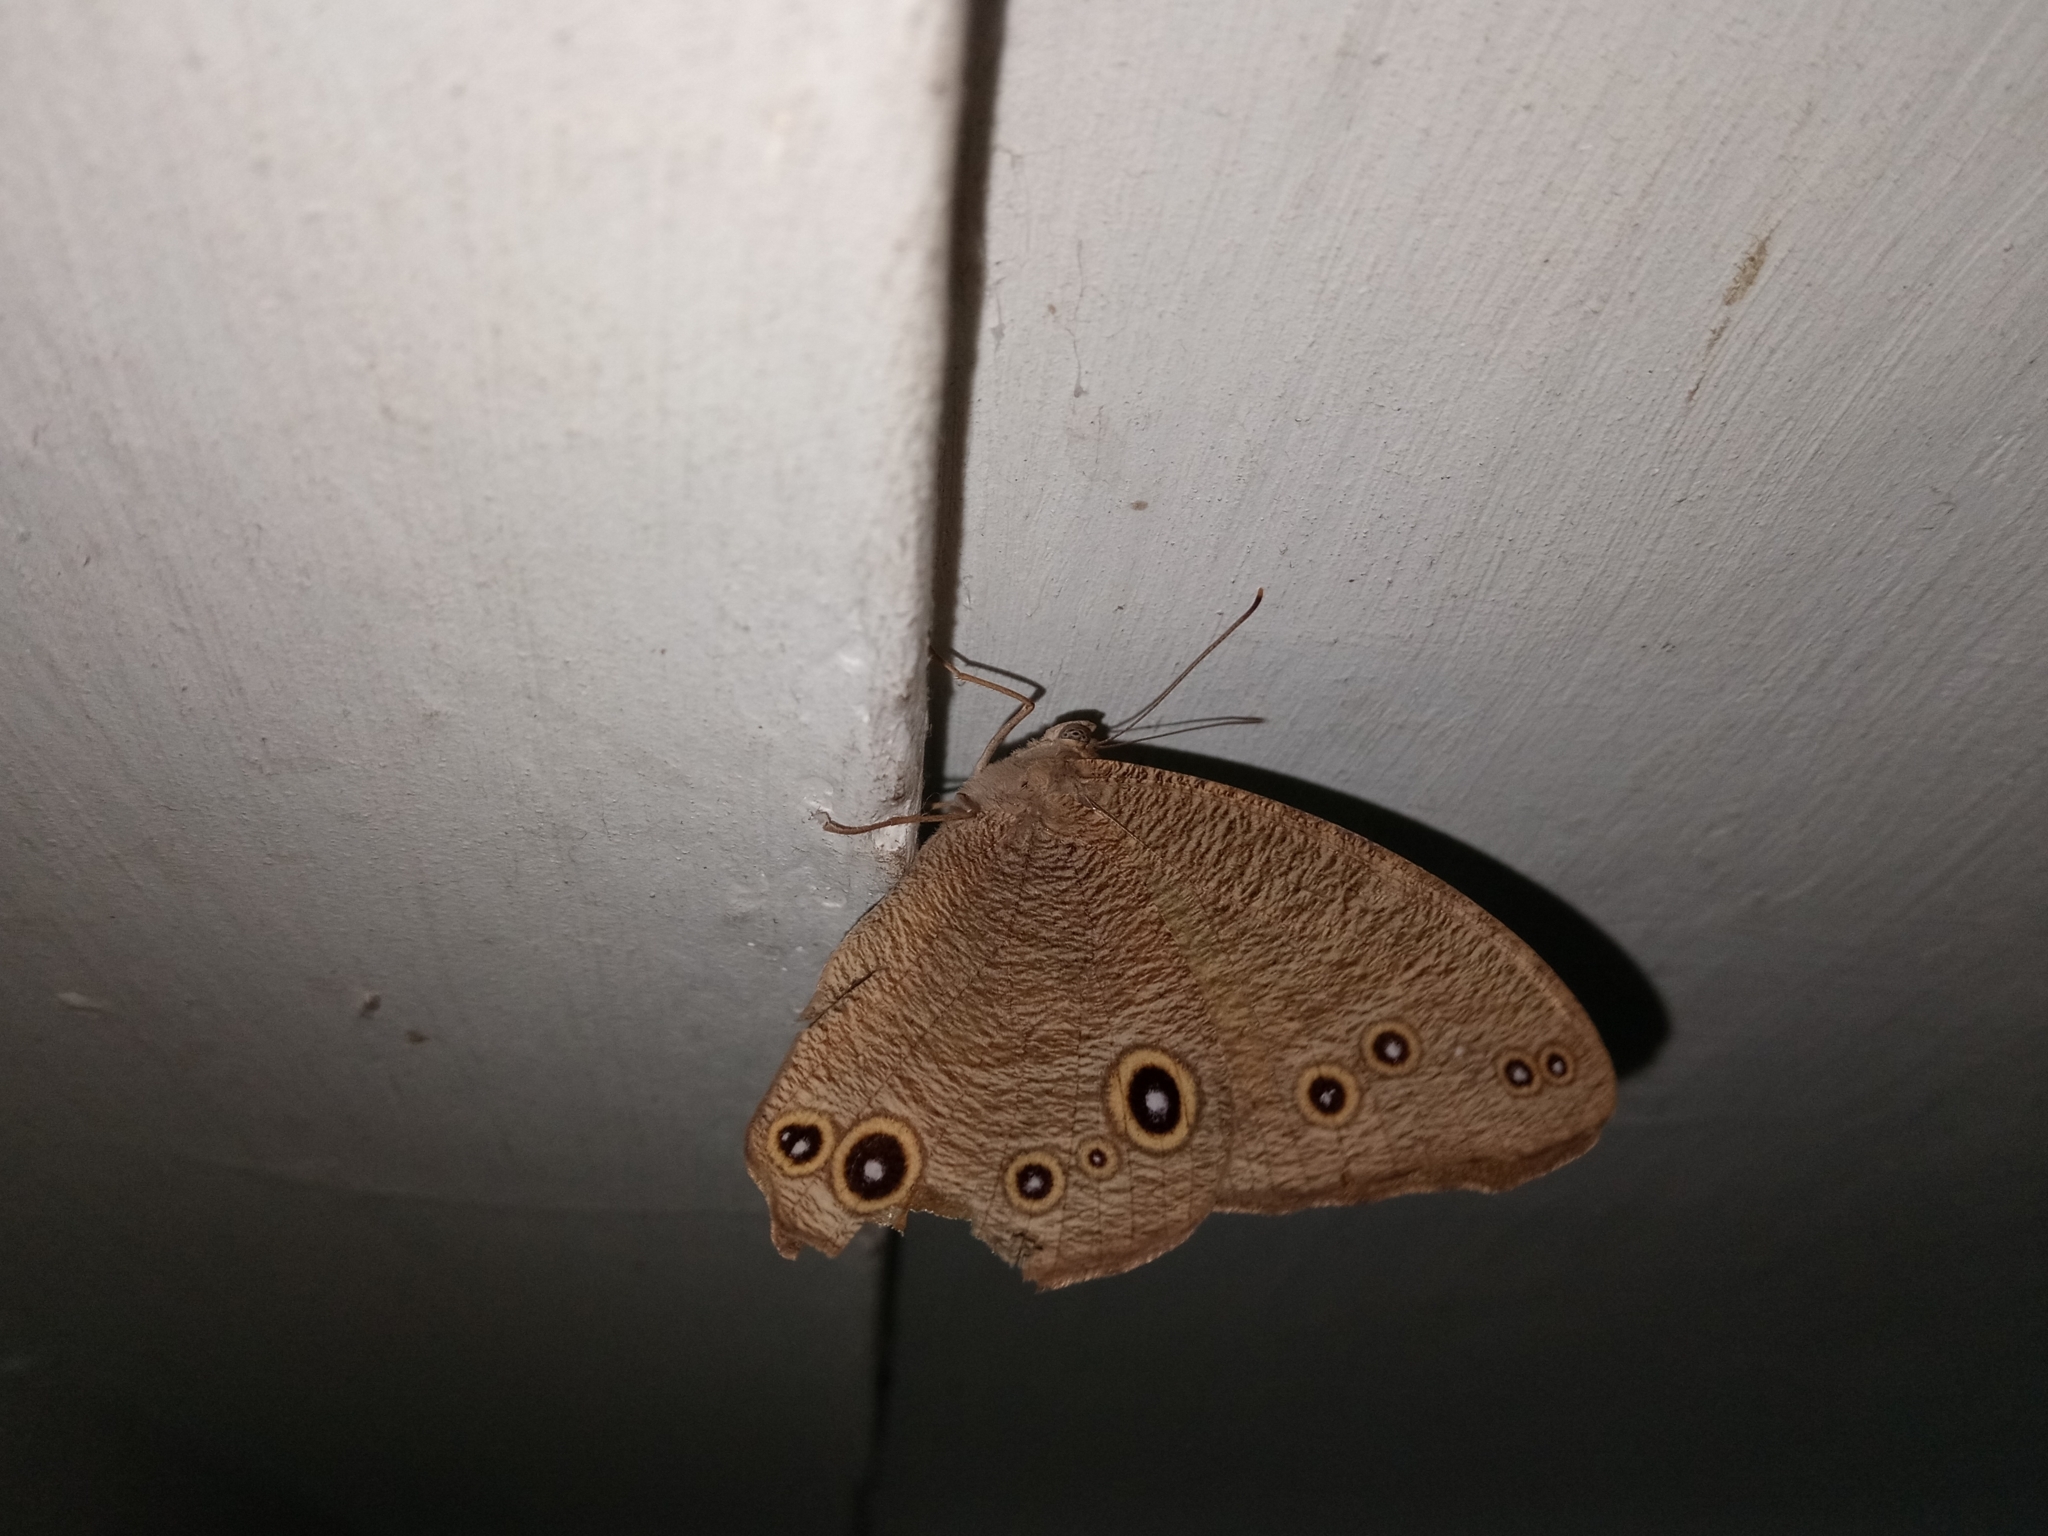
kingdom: Animalia
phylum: Arthropoda
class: Insecta
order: Lepidoptera
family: Nymphalidae
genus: Melanitis
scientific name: Melanitis leda
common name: Twilight brown
